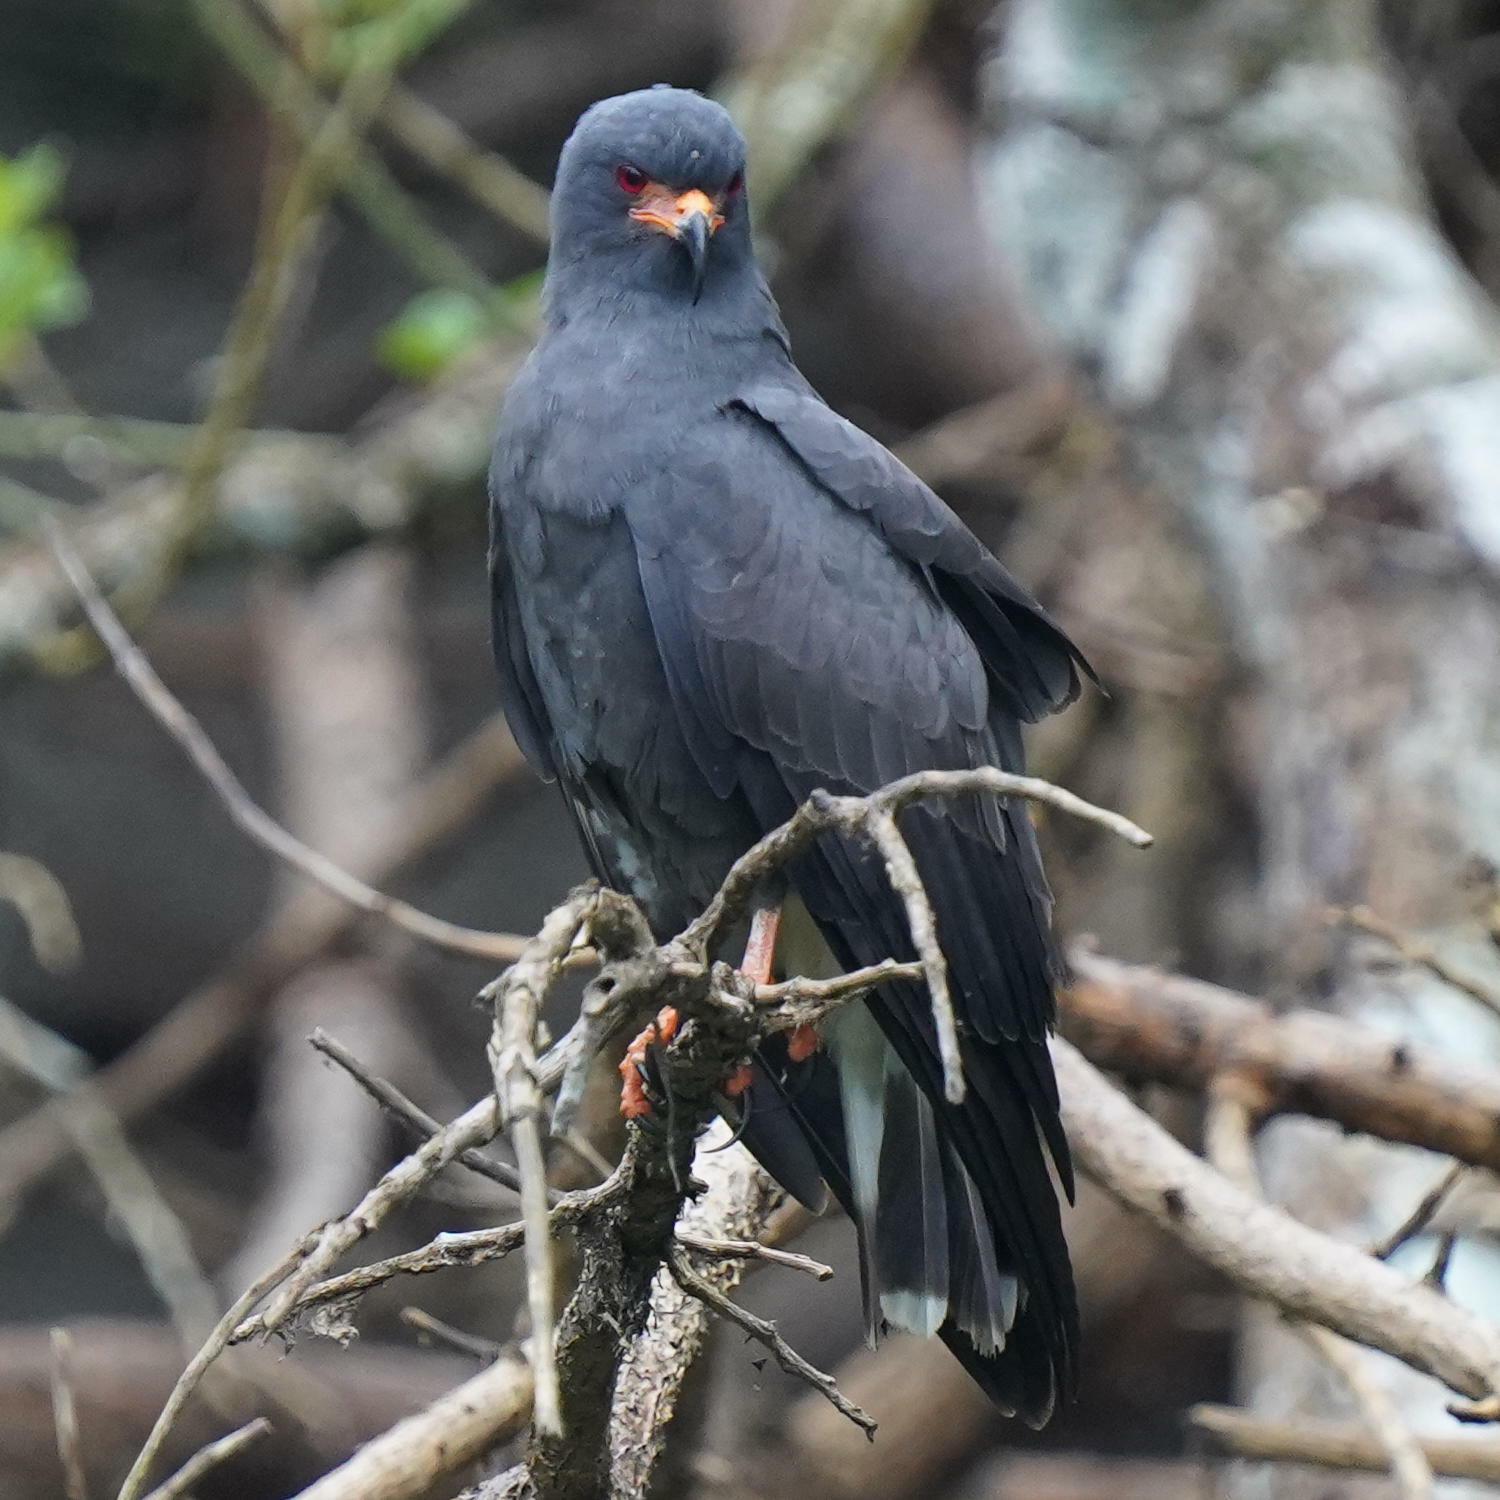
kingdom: Animalia
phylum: Chordata
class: Aves
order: Accipitriformes
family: Accipitridae
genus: Rostrhamus
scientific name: Rostrhamus sociabilis
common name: Snail kite
